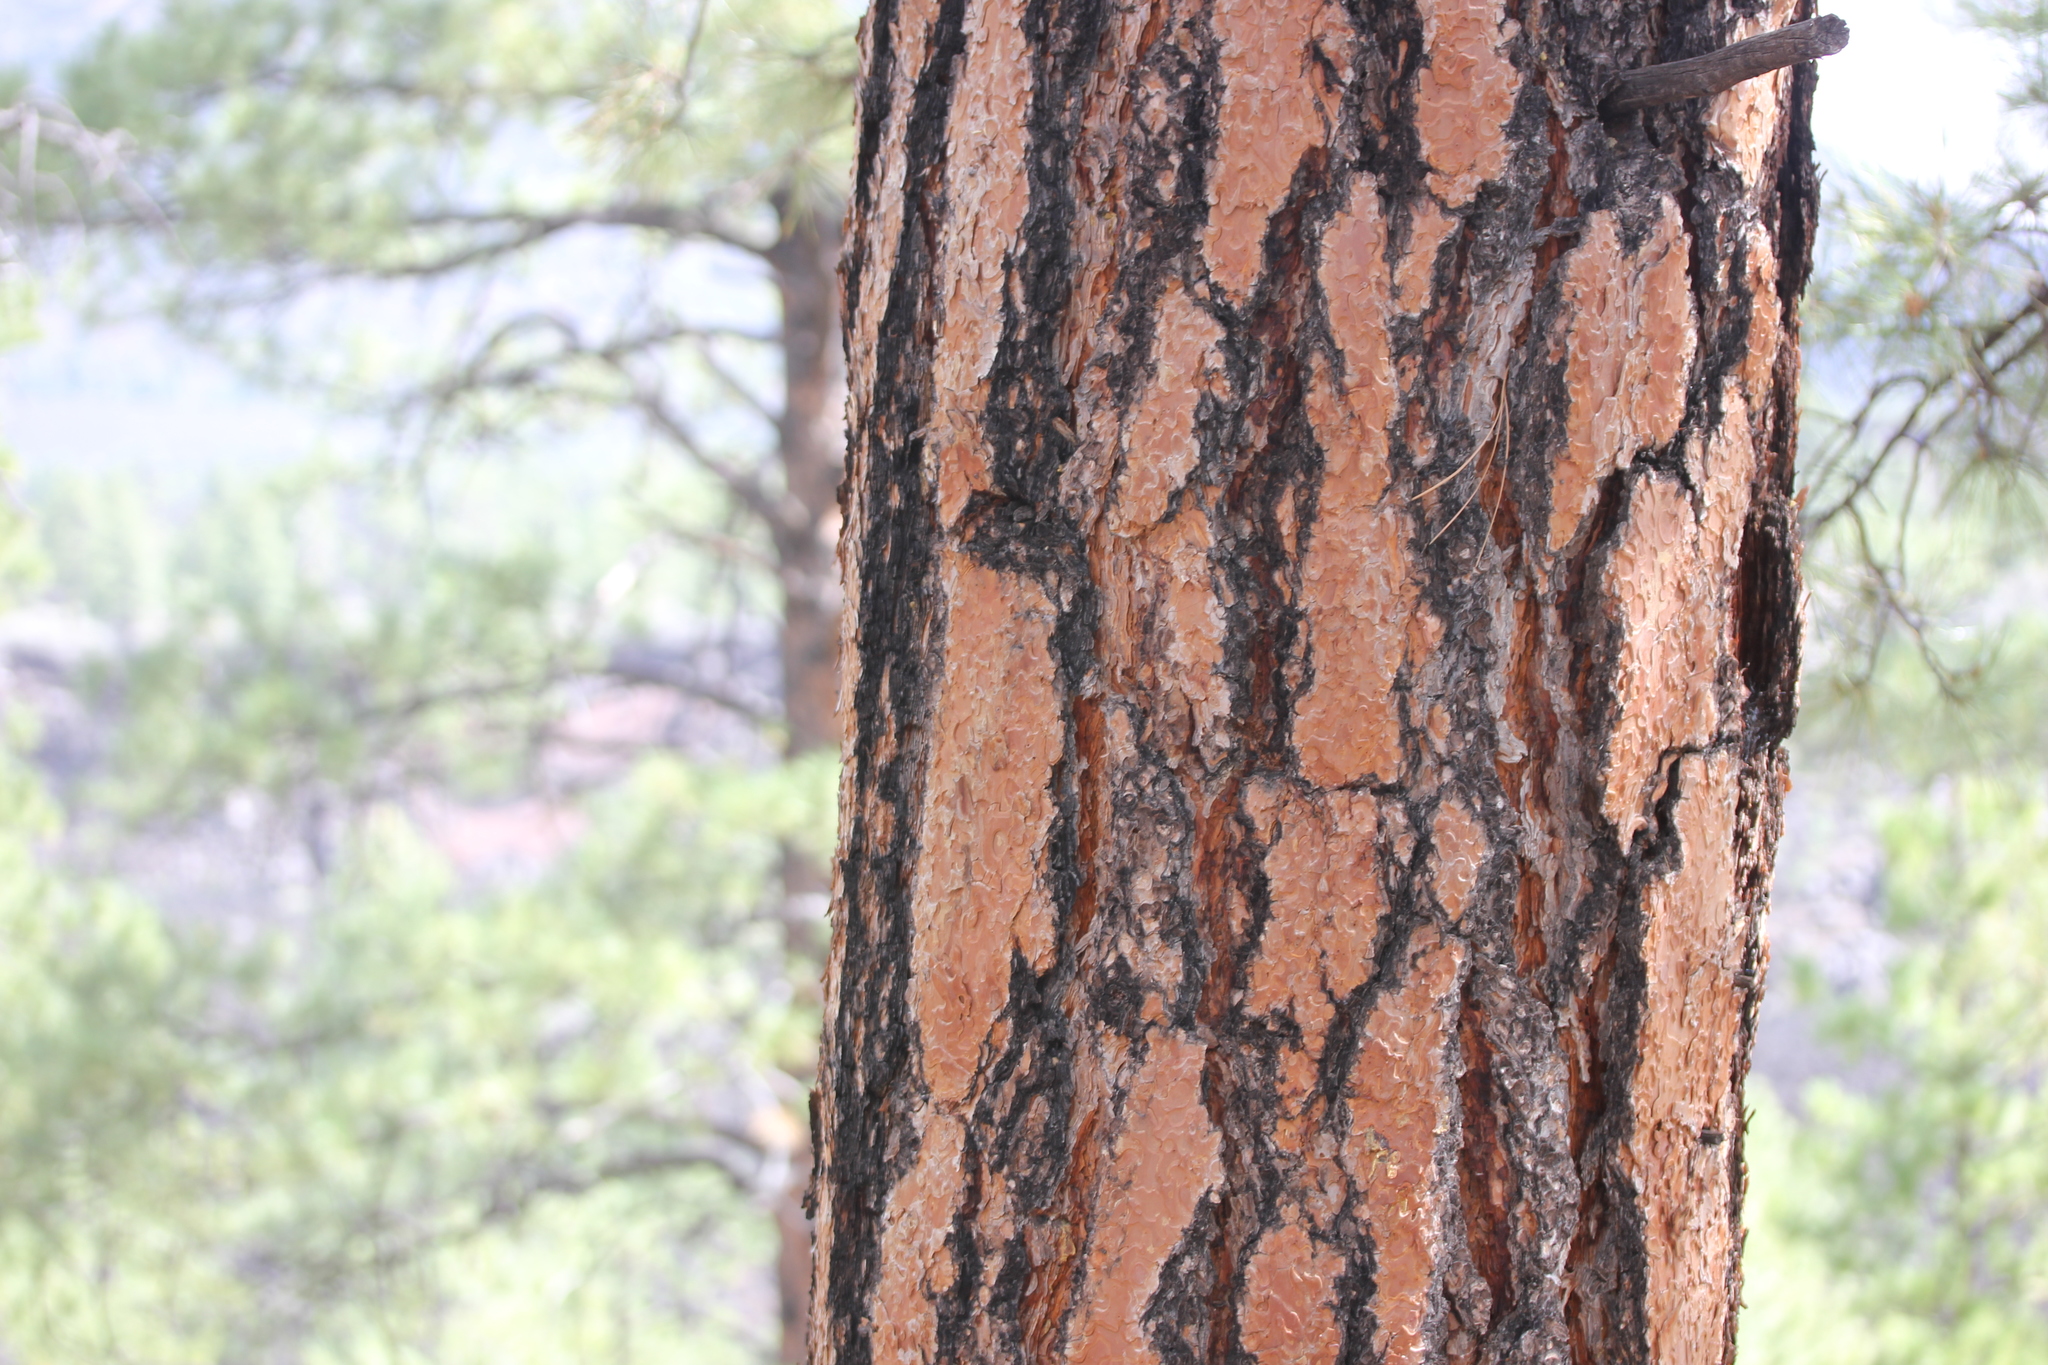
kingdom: Plantae
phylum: Tracheophyta
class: Pinopsida
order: Pinales
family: Pinaceae
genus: Pinus
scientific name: Pinus ponderosa
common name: Western yellow-pine
